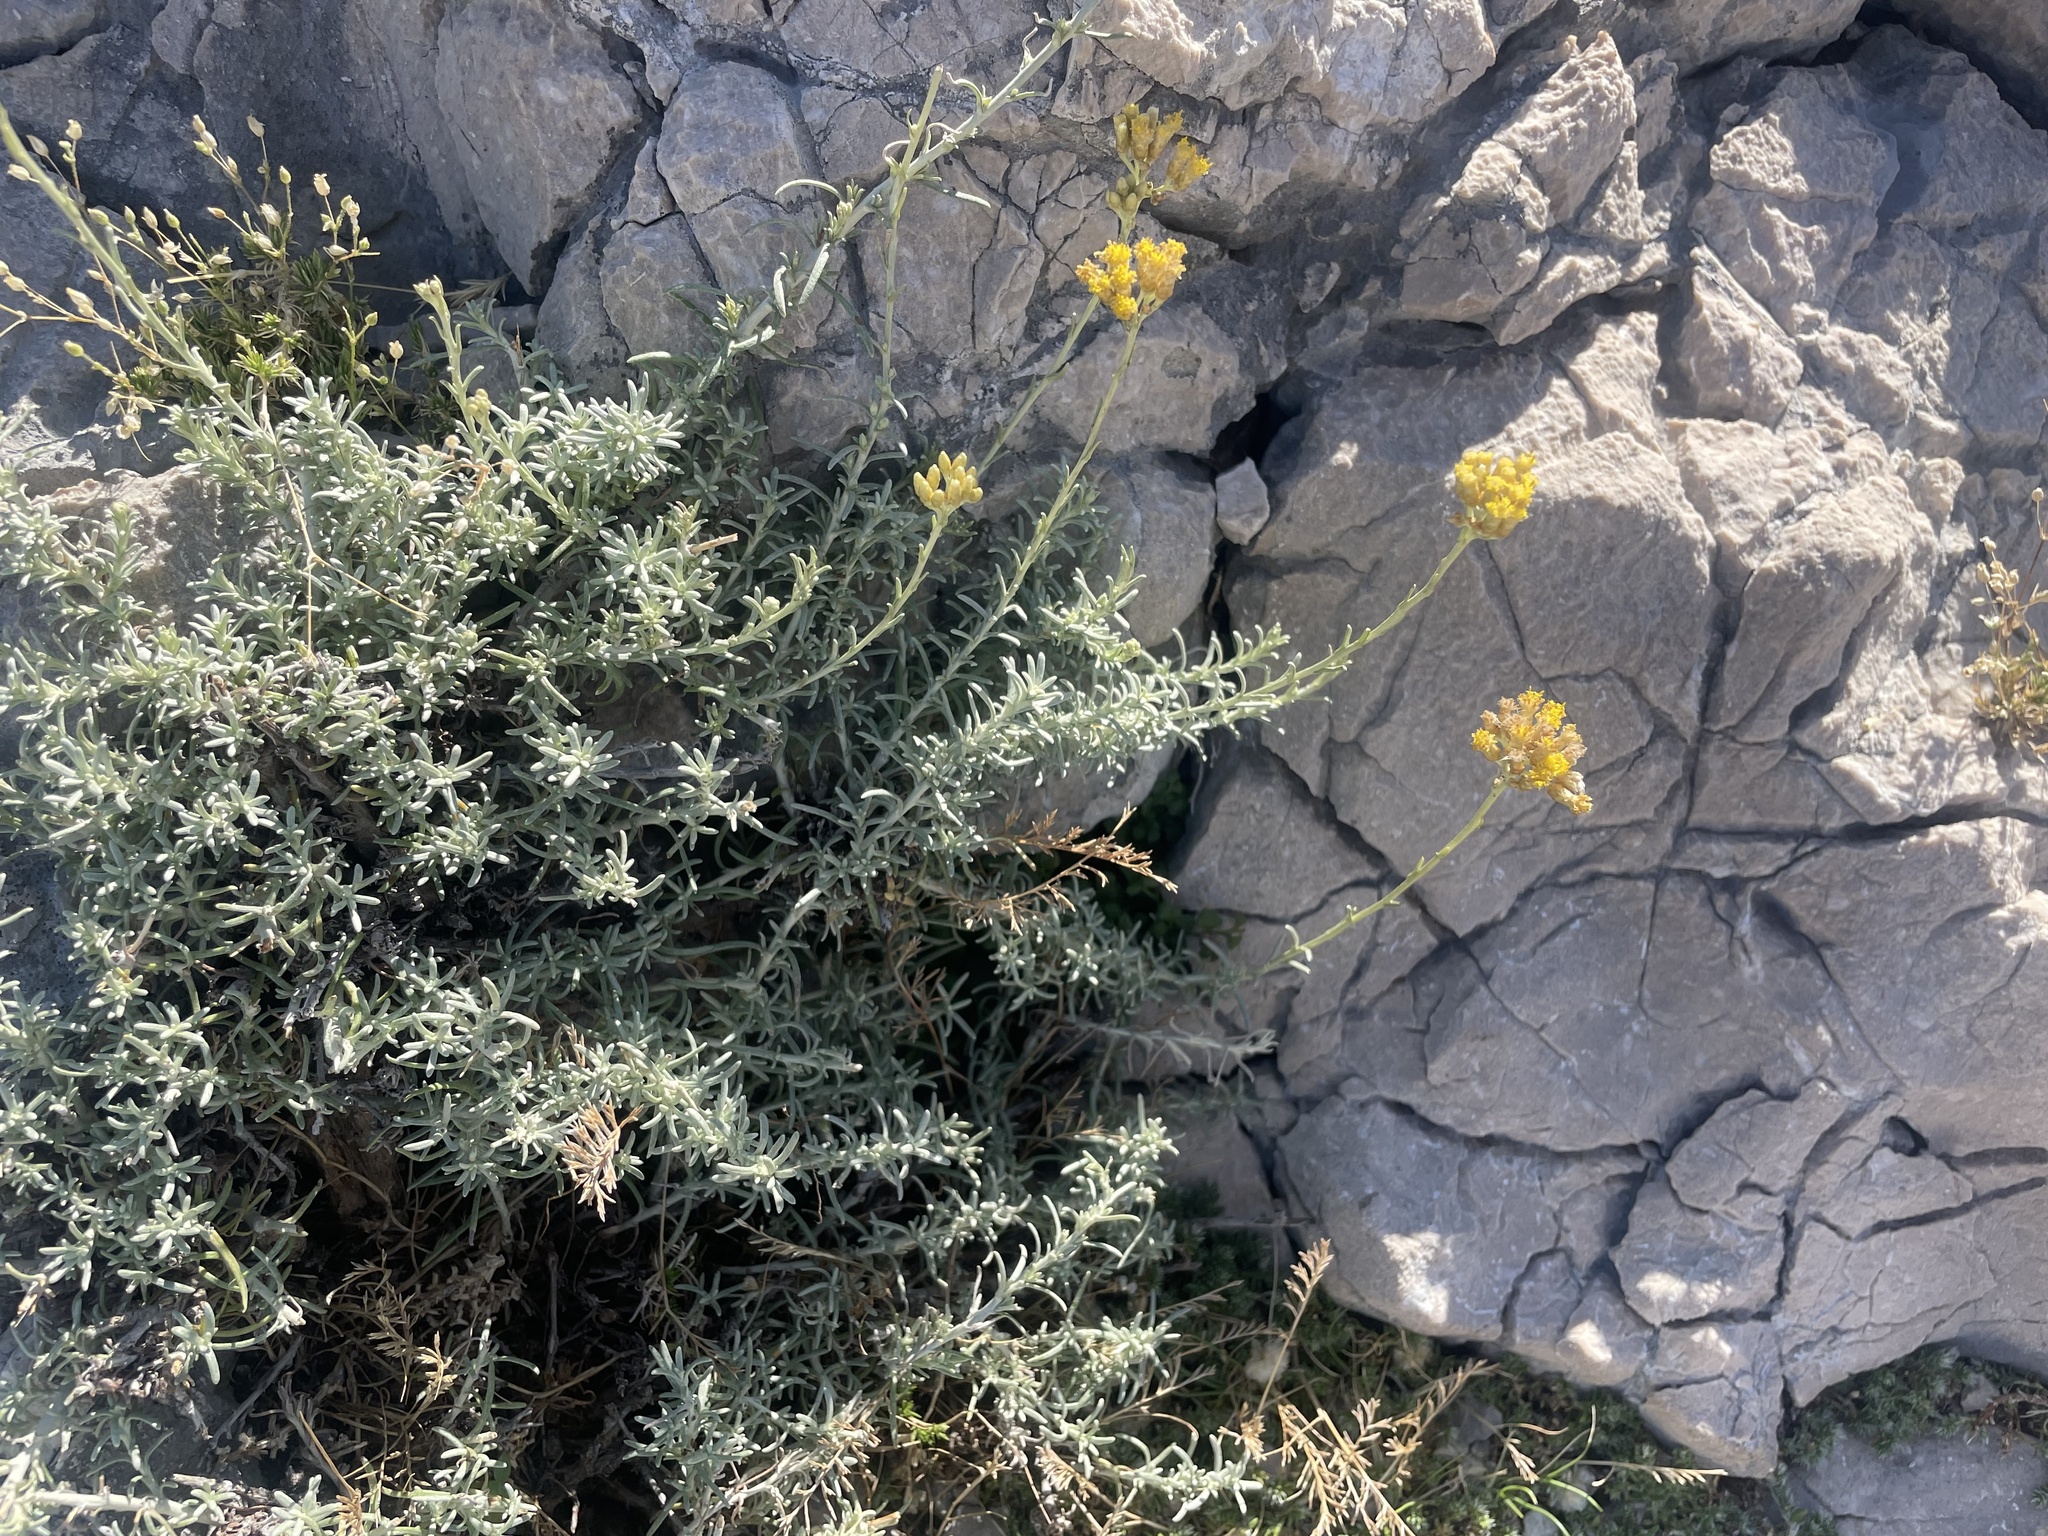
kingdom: Plantae
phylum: Tracheophyta
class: Magnoliopsida
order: Asterales
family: Asteraceae
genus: Helichrysum
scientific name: Helichrysum italicum
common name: Curryplant
